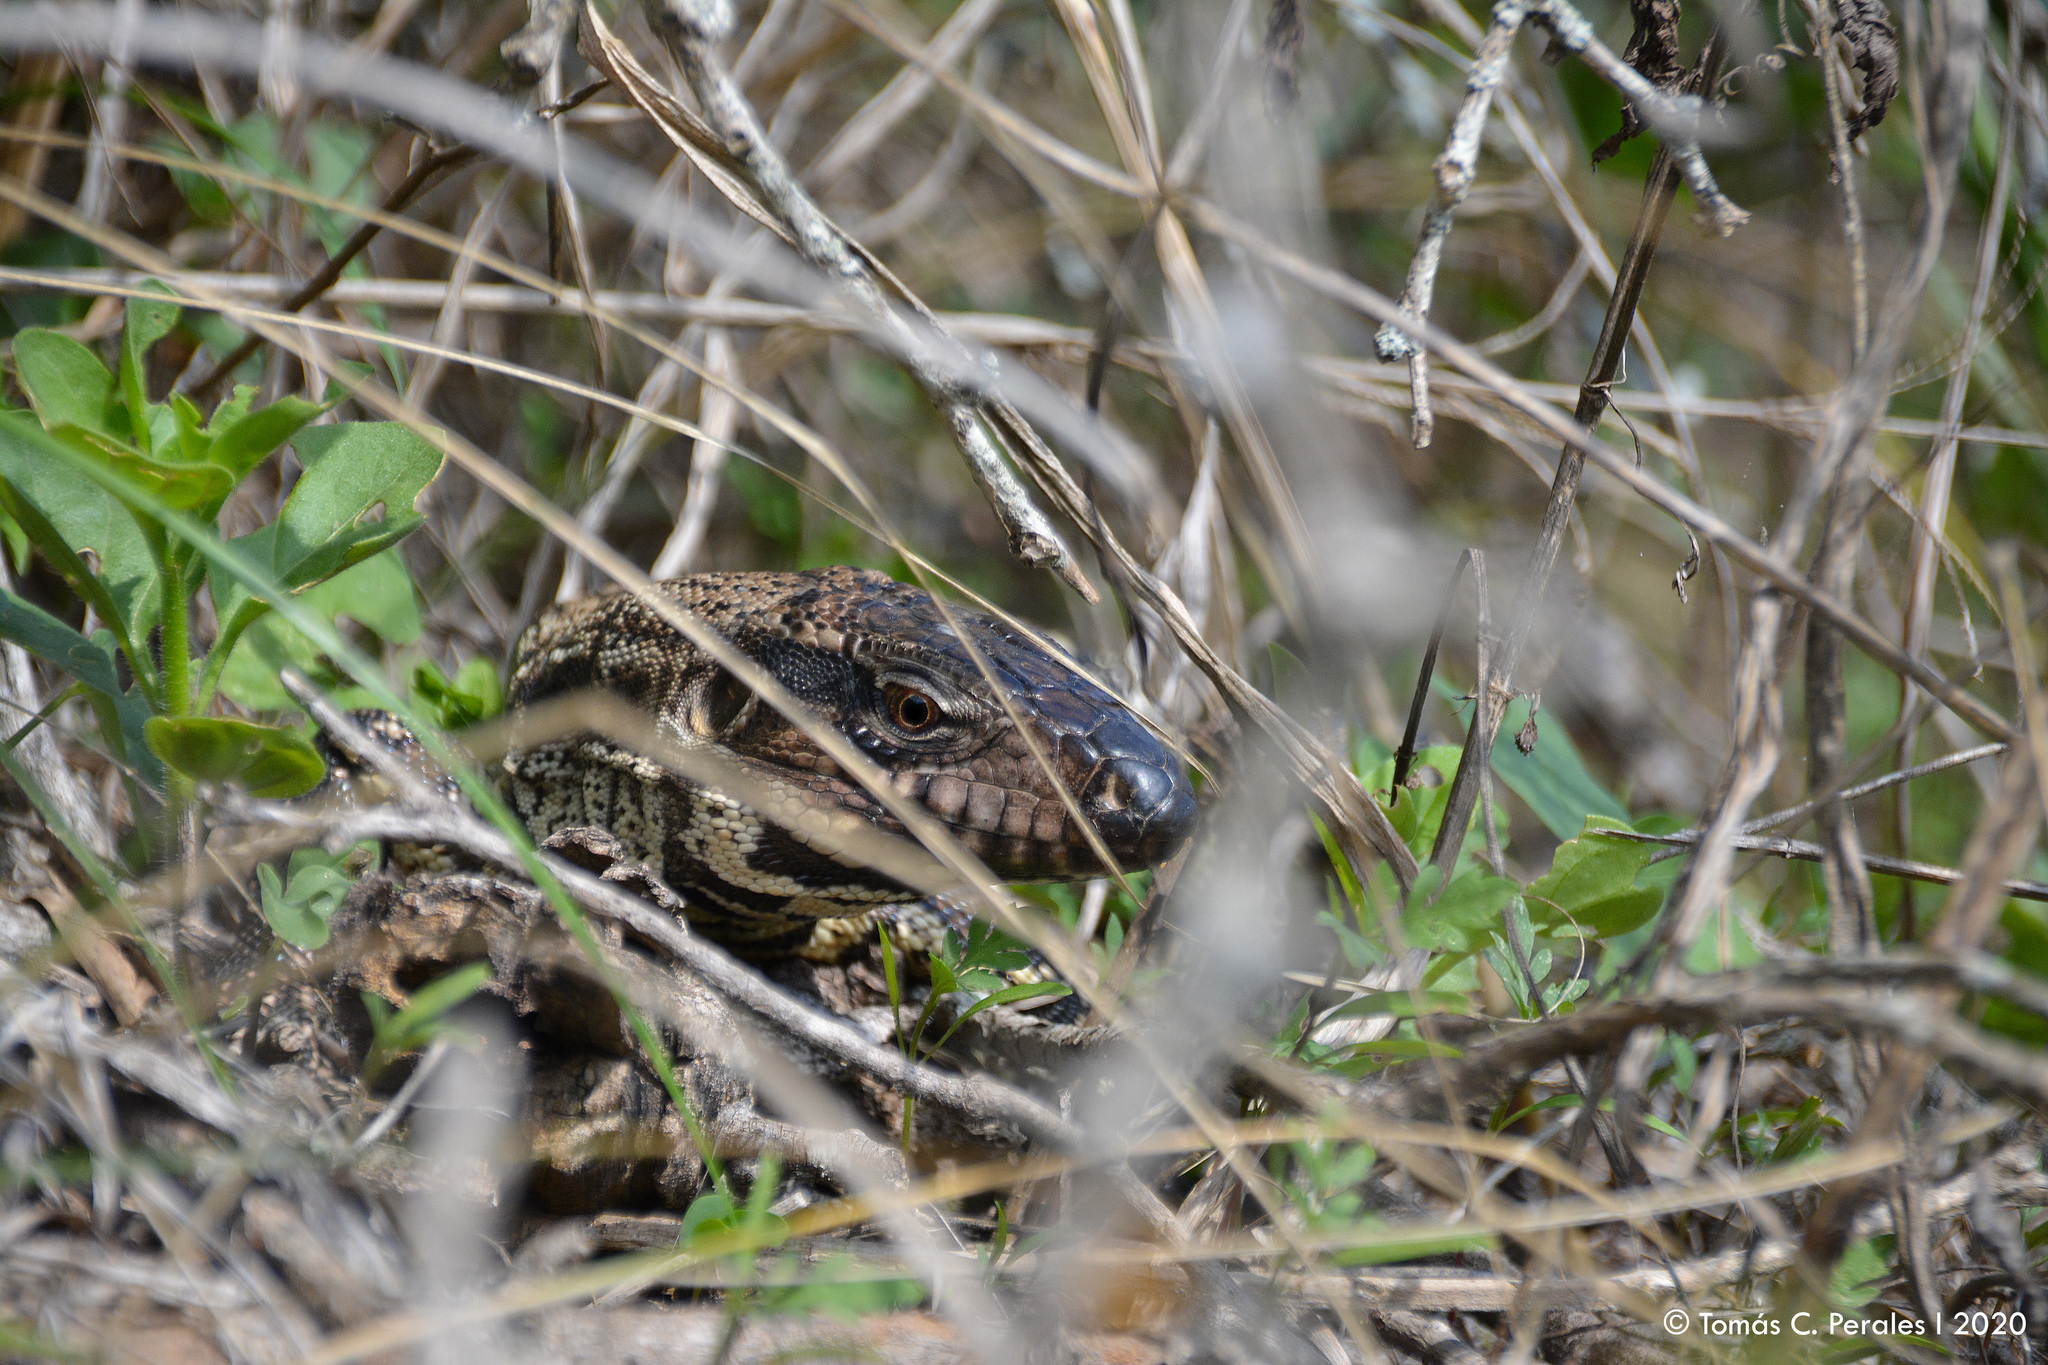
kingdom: Animalia
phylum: Chordata
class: Squamata
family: Teiidae
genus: Salvator
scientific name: Salvator merianae
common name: Argentine black and white tegu
